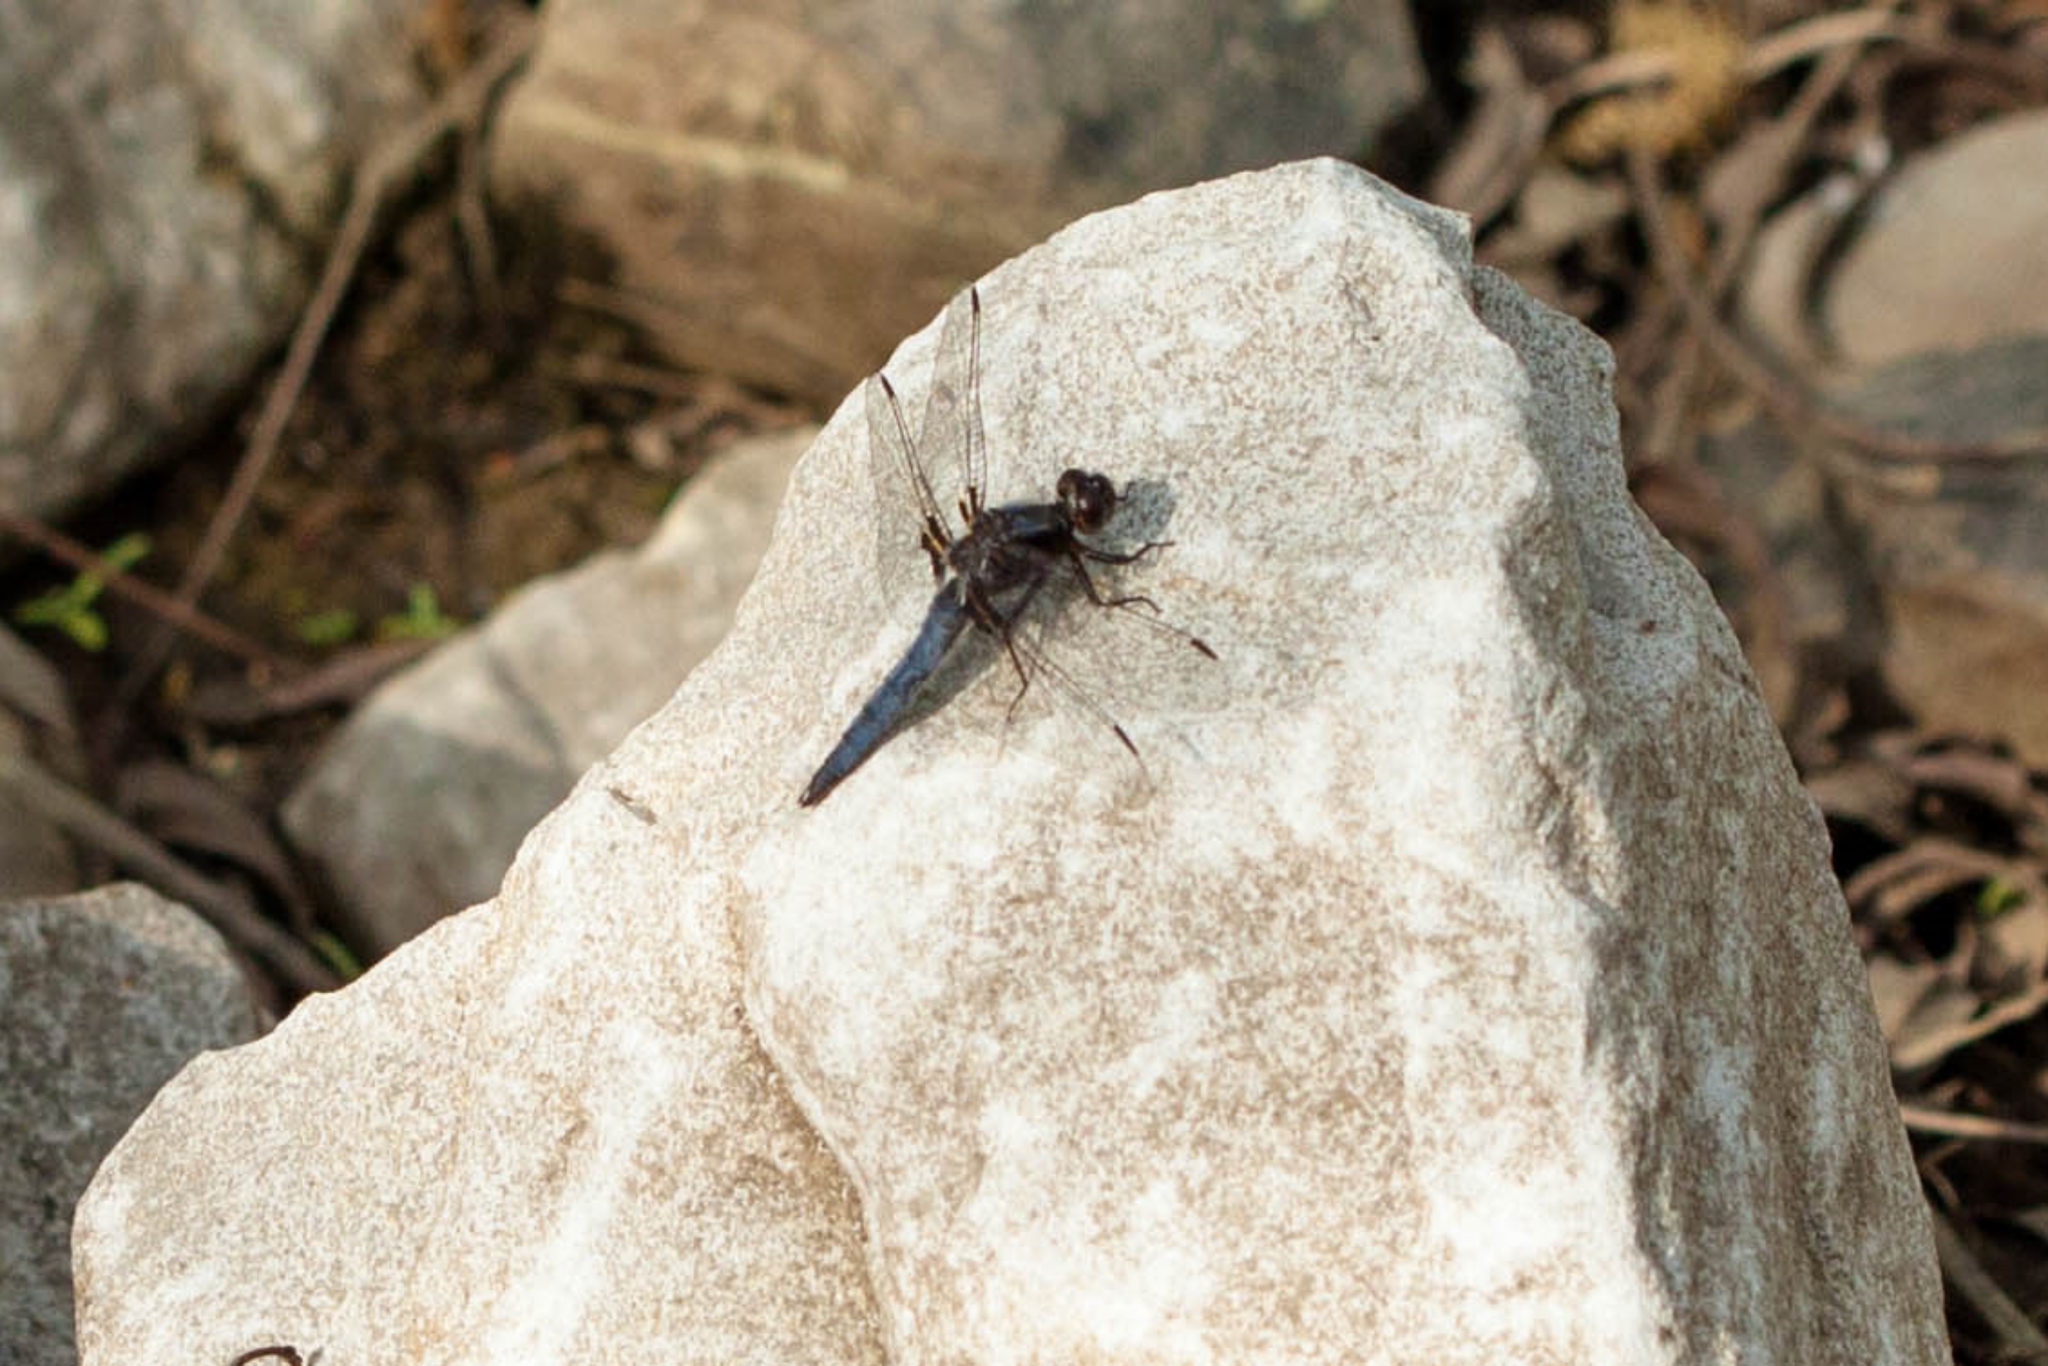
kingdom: Animalia
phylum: Arthropoda
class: Insecta
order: Odonata
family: Libellulidae
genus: Ladona
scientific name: Ladona deplanata
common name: Blue corporal
